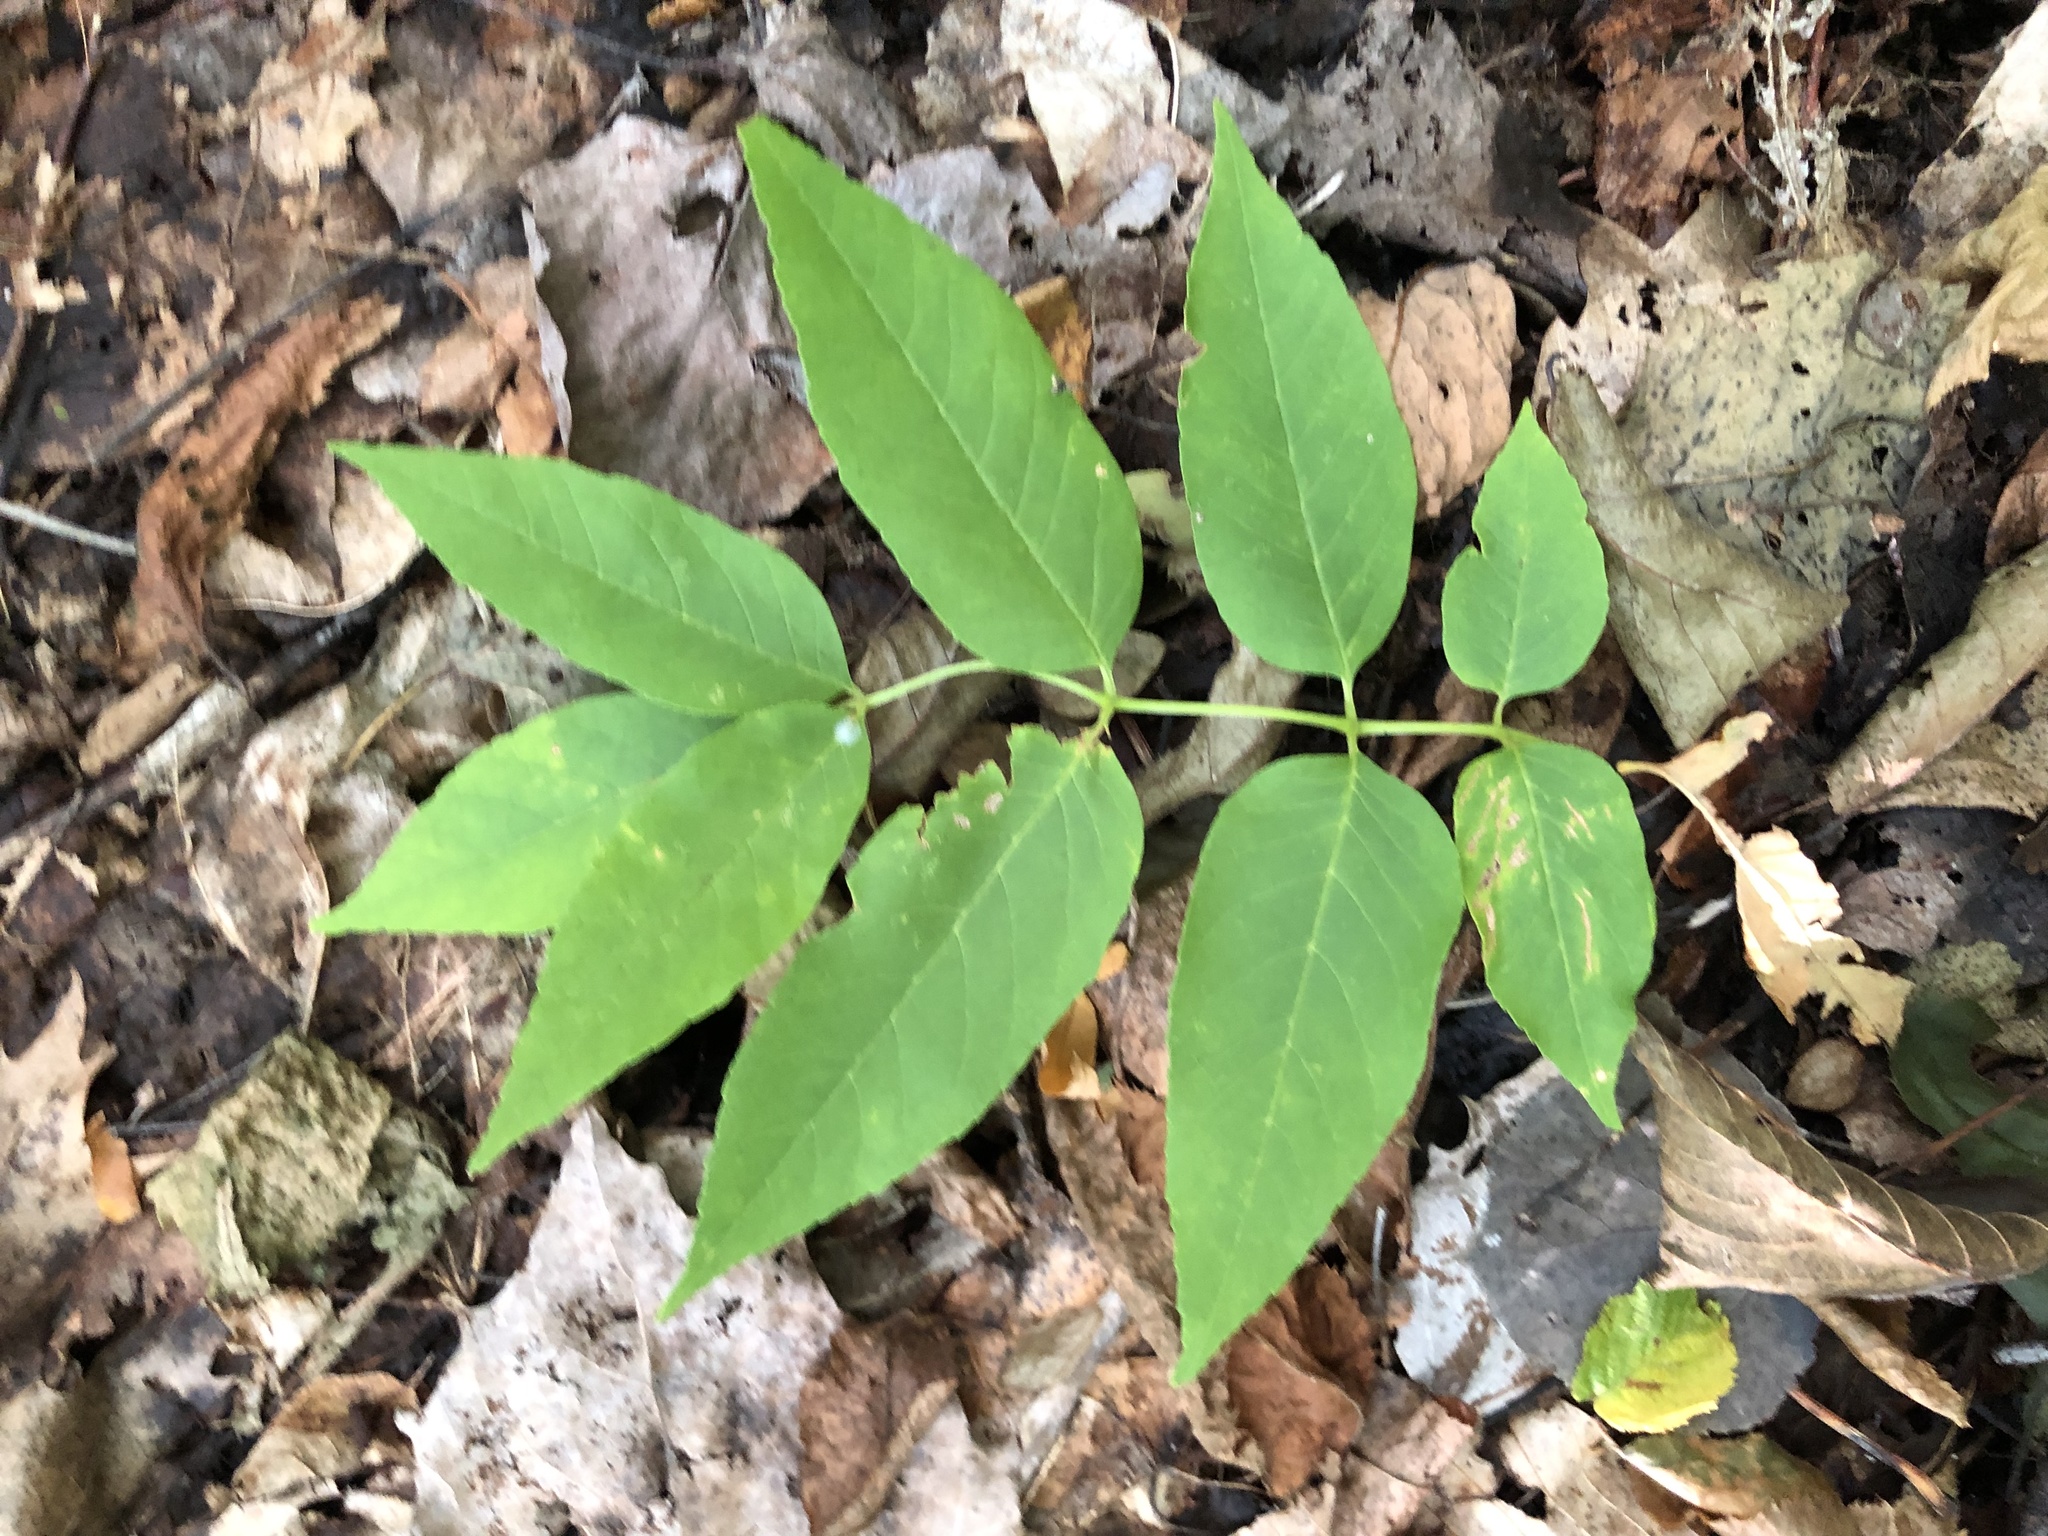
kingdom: Plantae
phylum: Tracheophyta
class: Magnoliopsida
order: Lamiales
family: Oleaceae
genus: Fraxinus
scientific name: Fraxinus americana
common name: White ash
